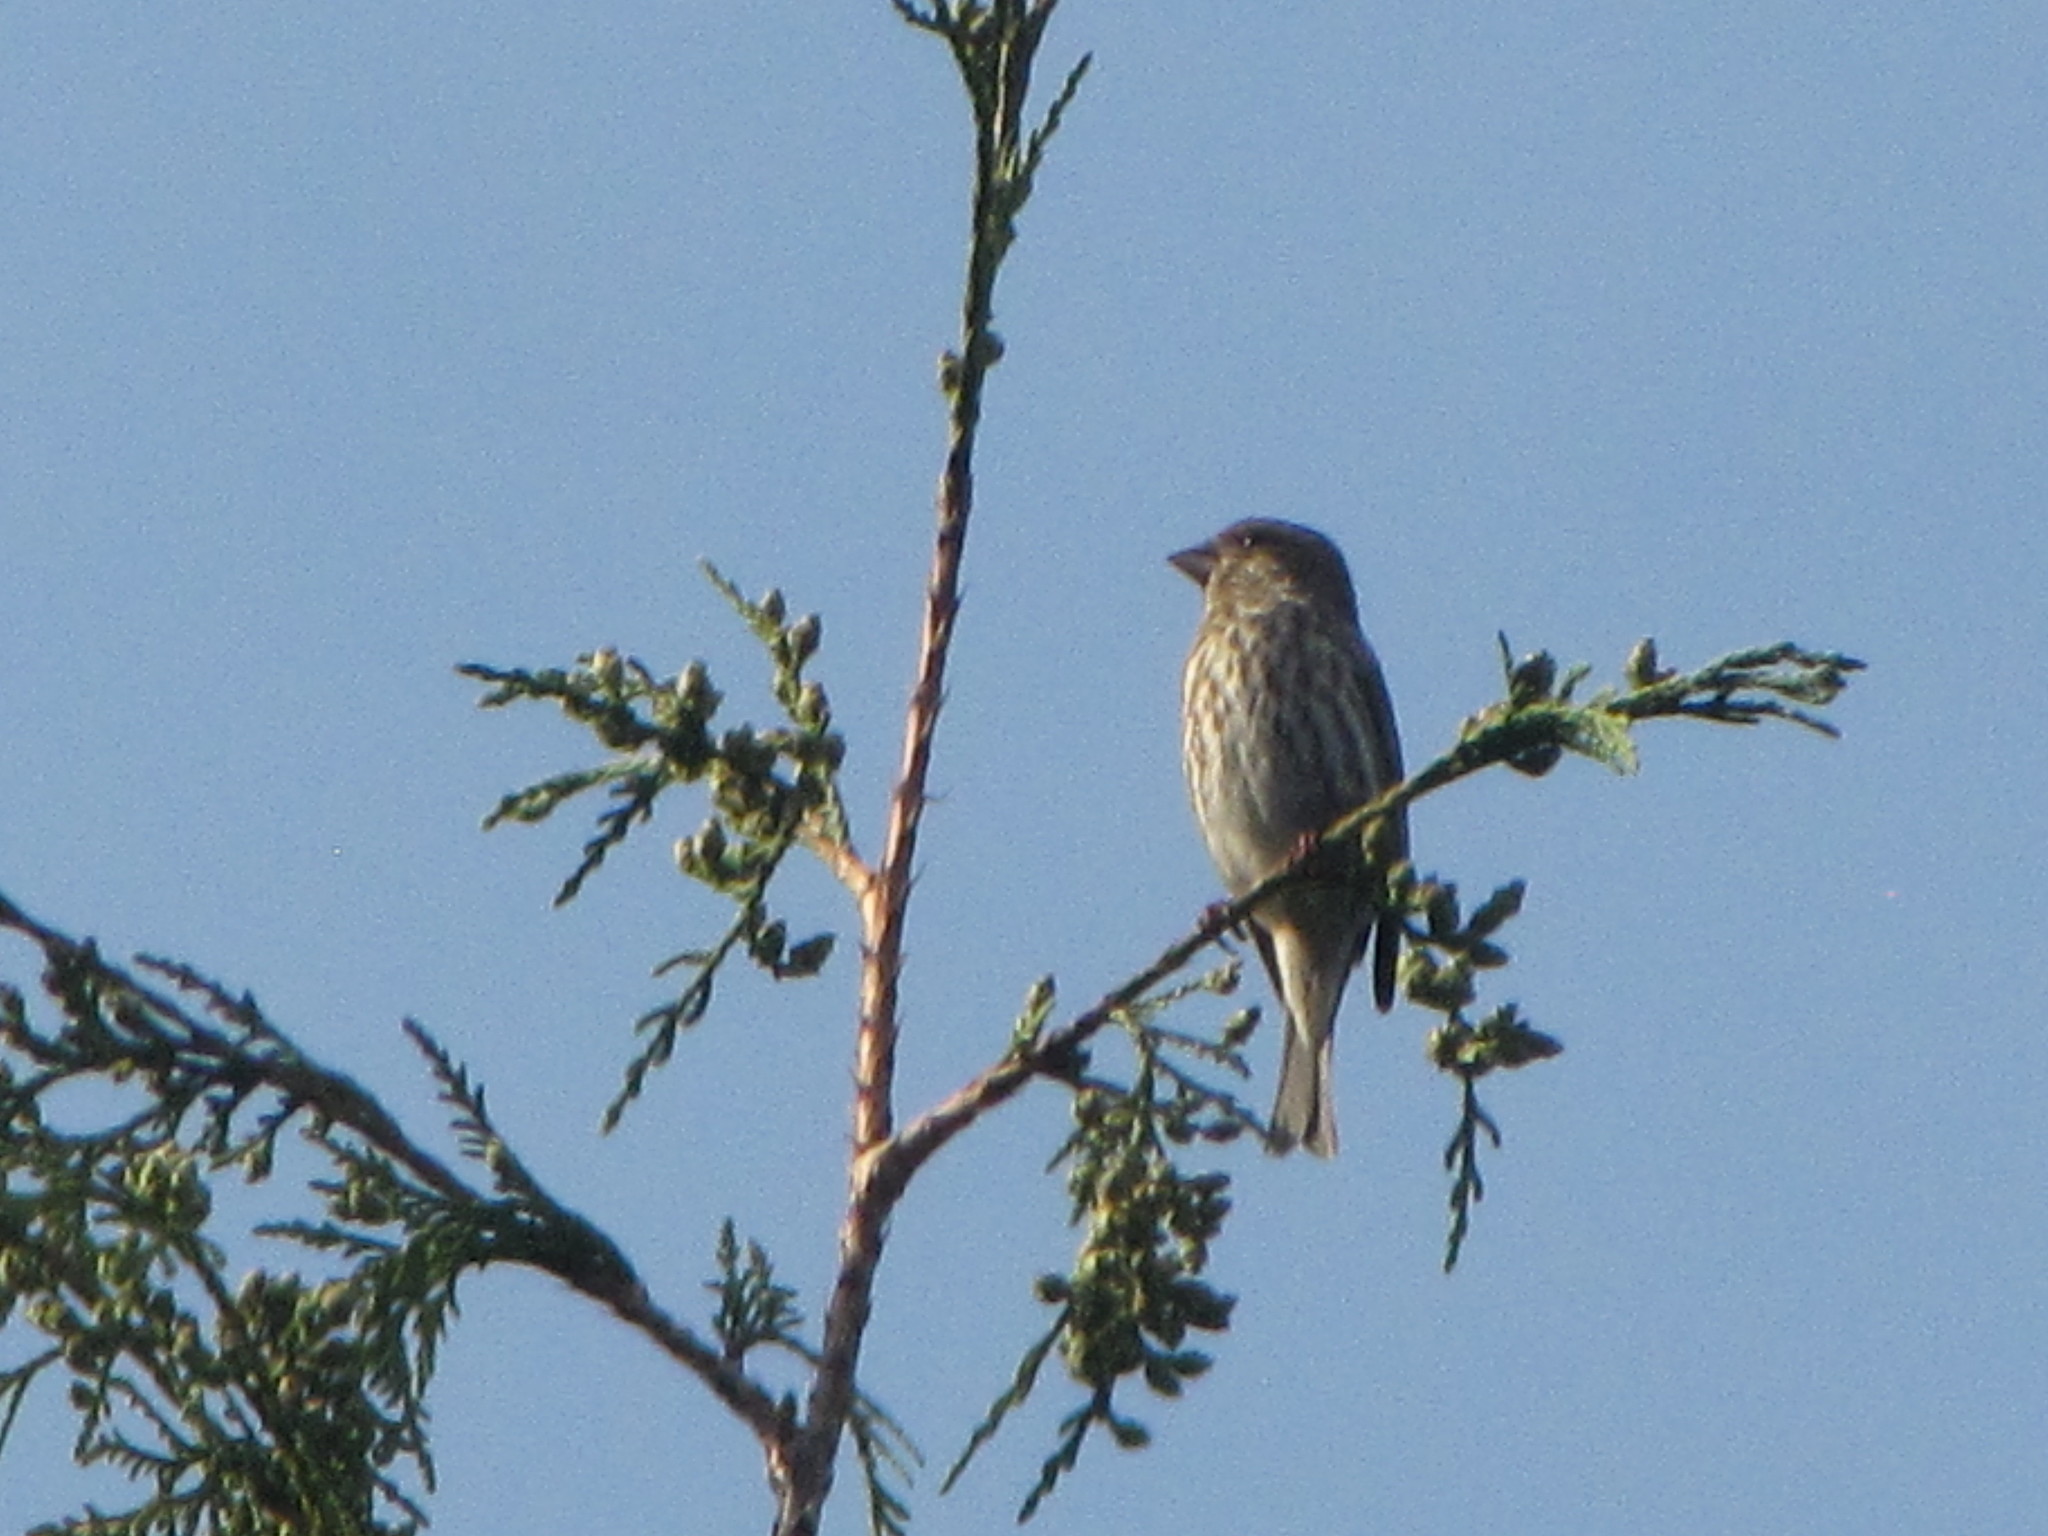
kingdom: Animalia
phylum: Chordata
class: Aves
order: Passeriformes
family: Fringillidae
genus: Haemorhous
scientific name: Haemorhous purpureus
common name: Purple finch
